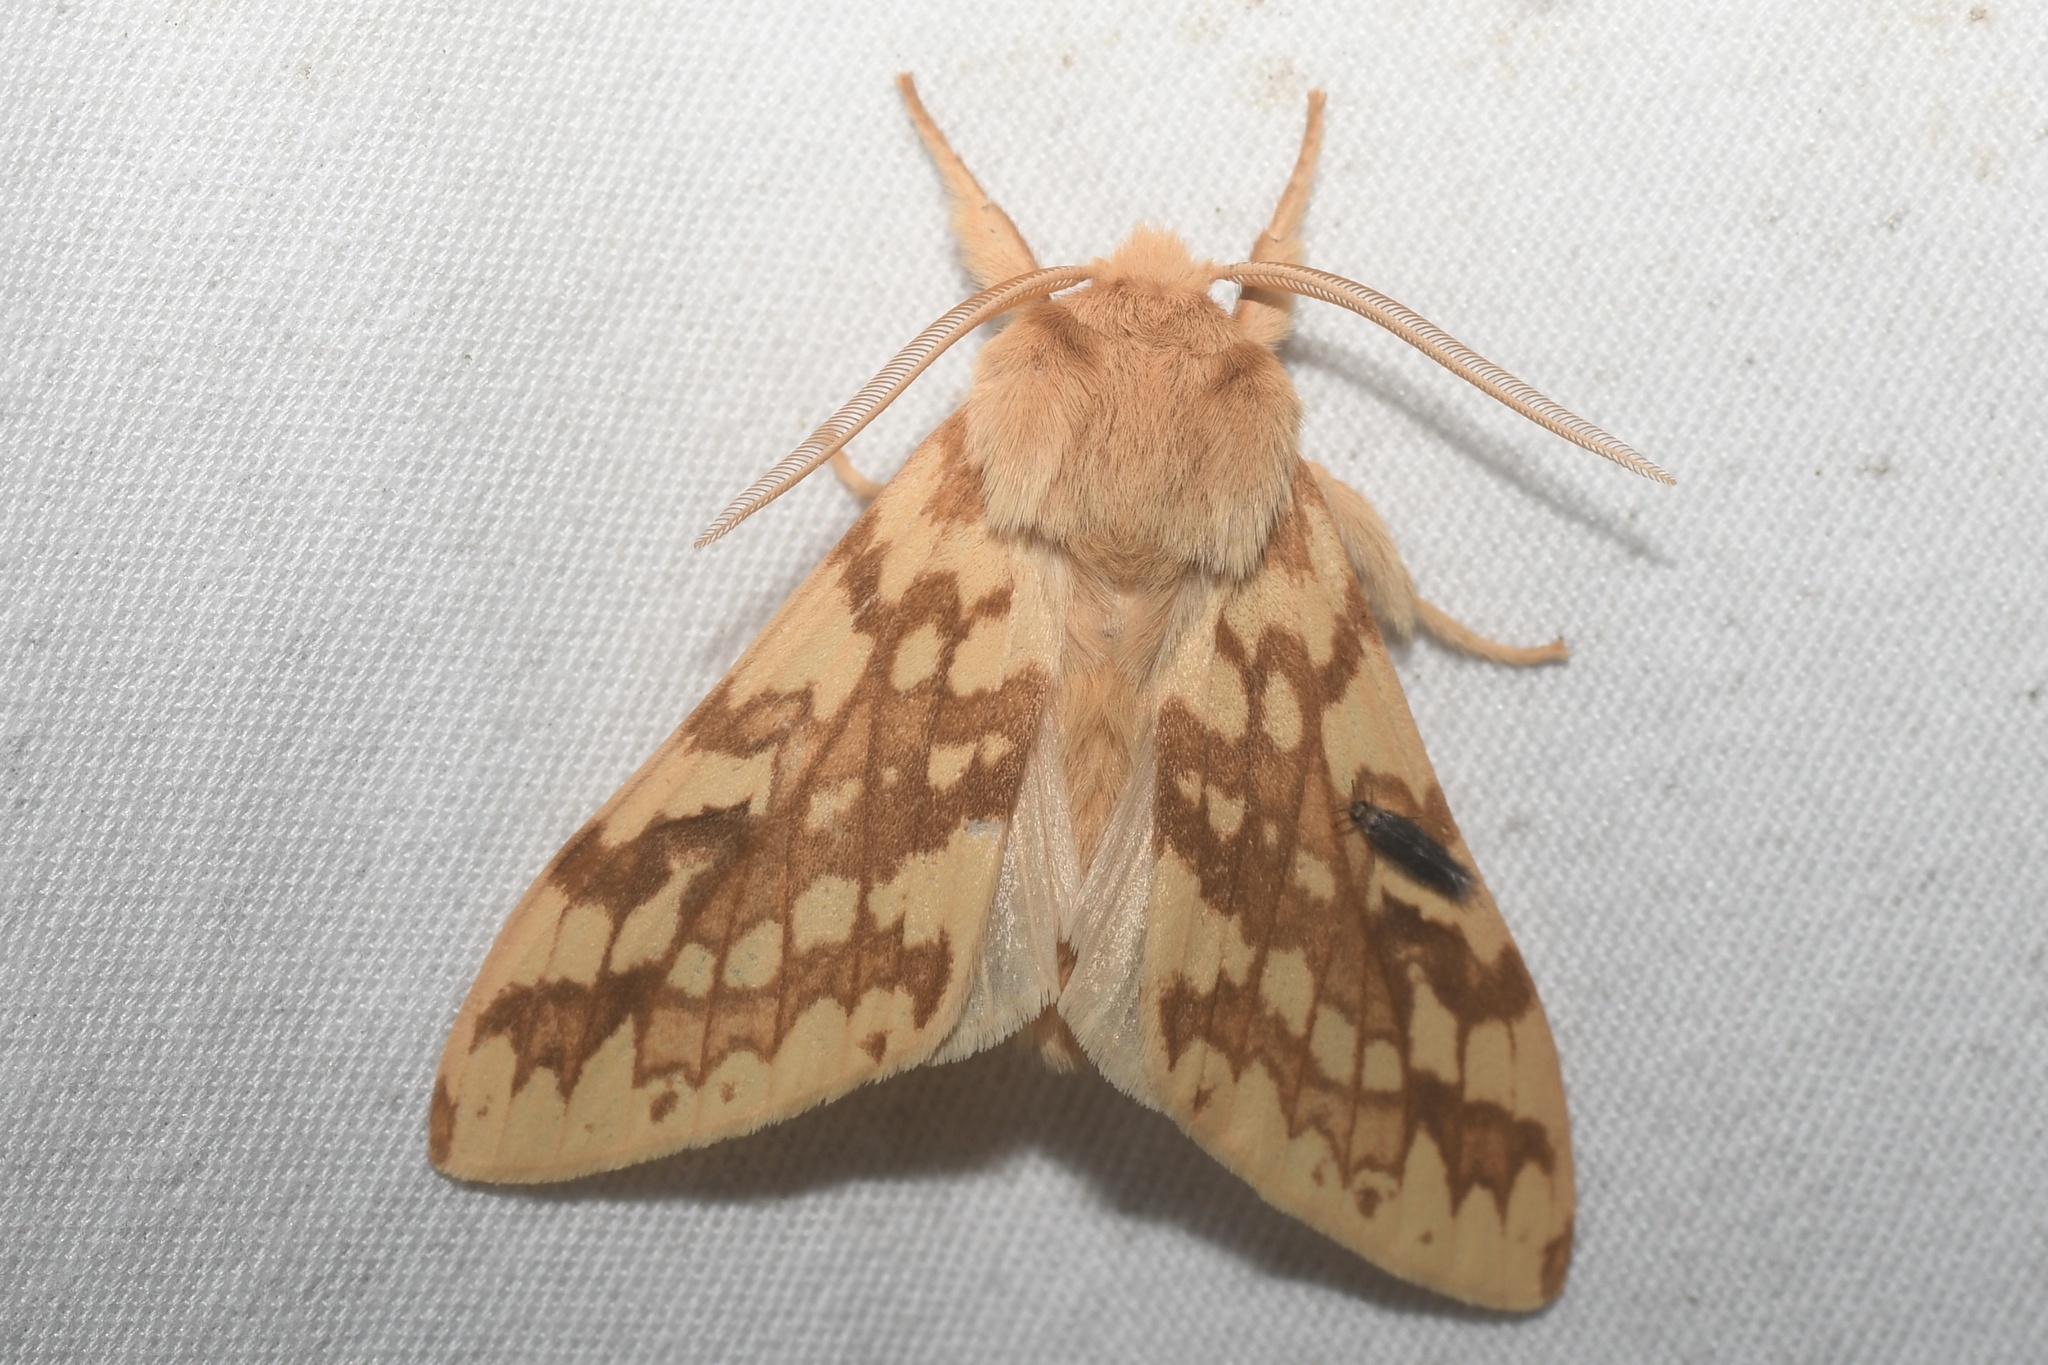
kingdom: Animalia
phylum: Arthropoda
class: Insecta
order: Lepidoptera
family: Erebidae
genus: Lophocampa
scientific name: Lophocampa maculata
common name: Spotted tussock moth
